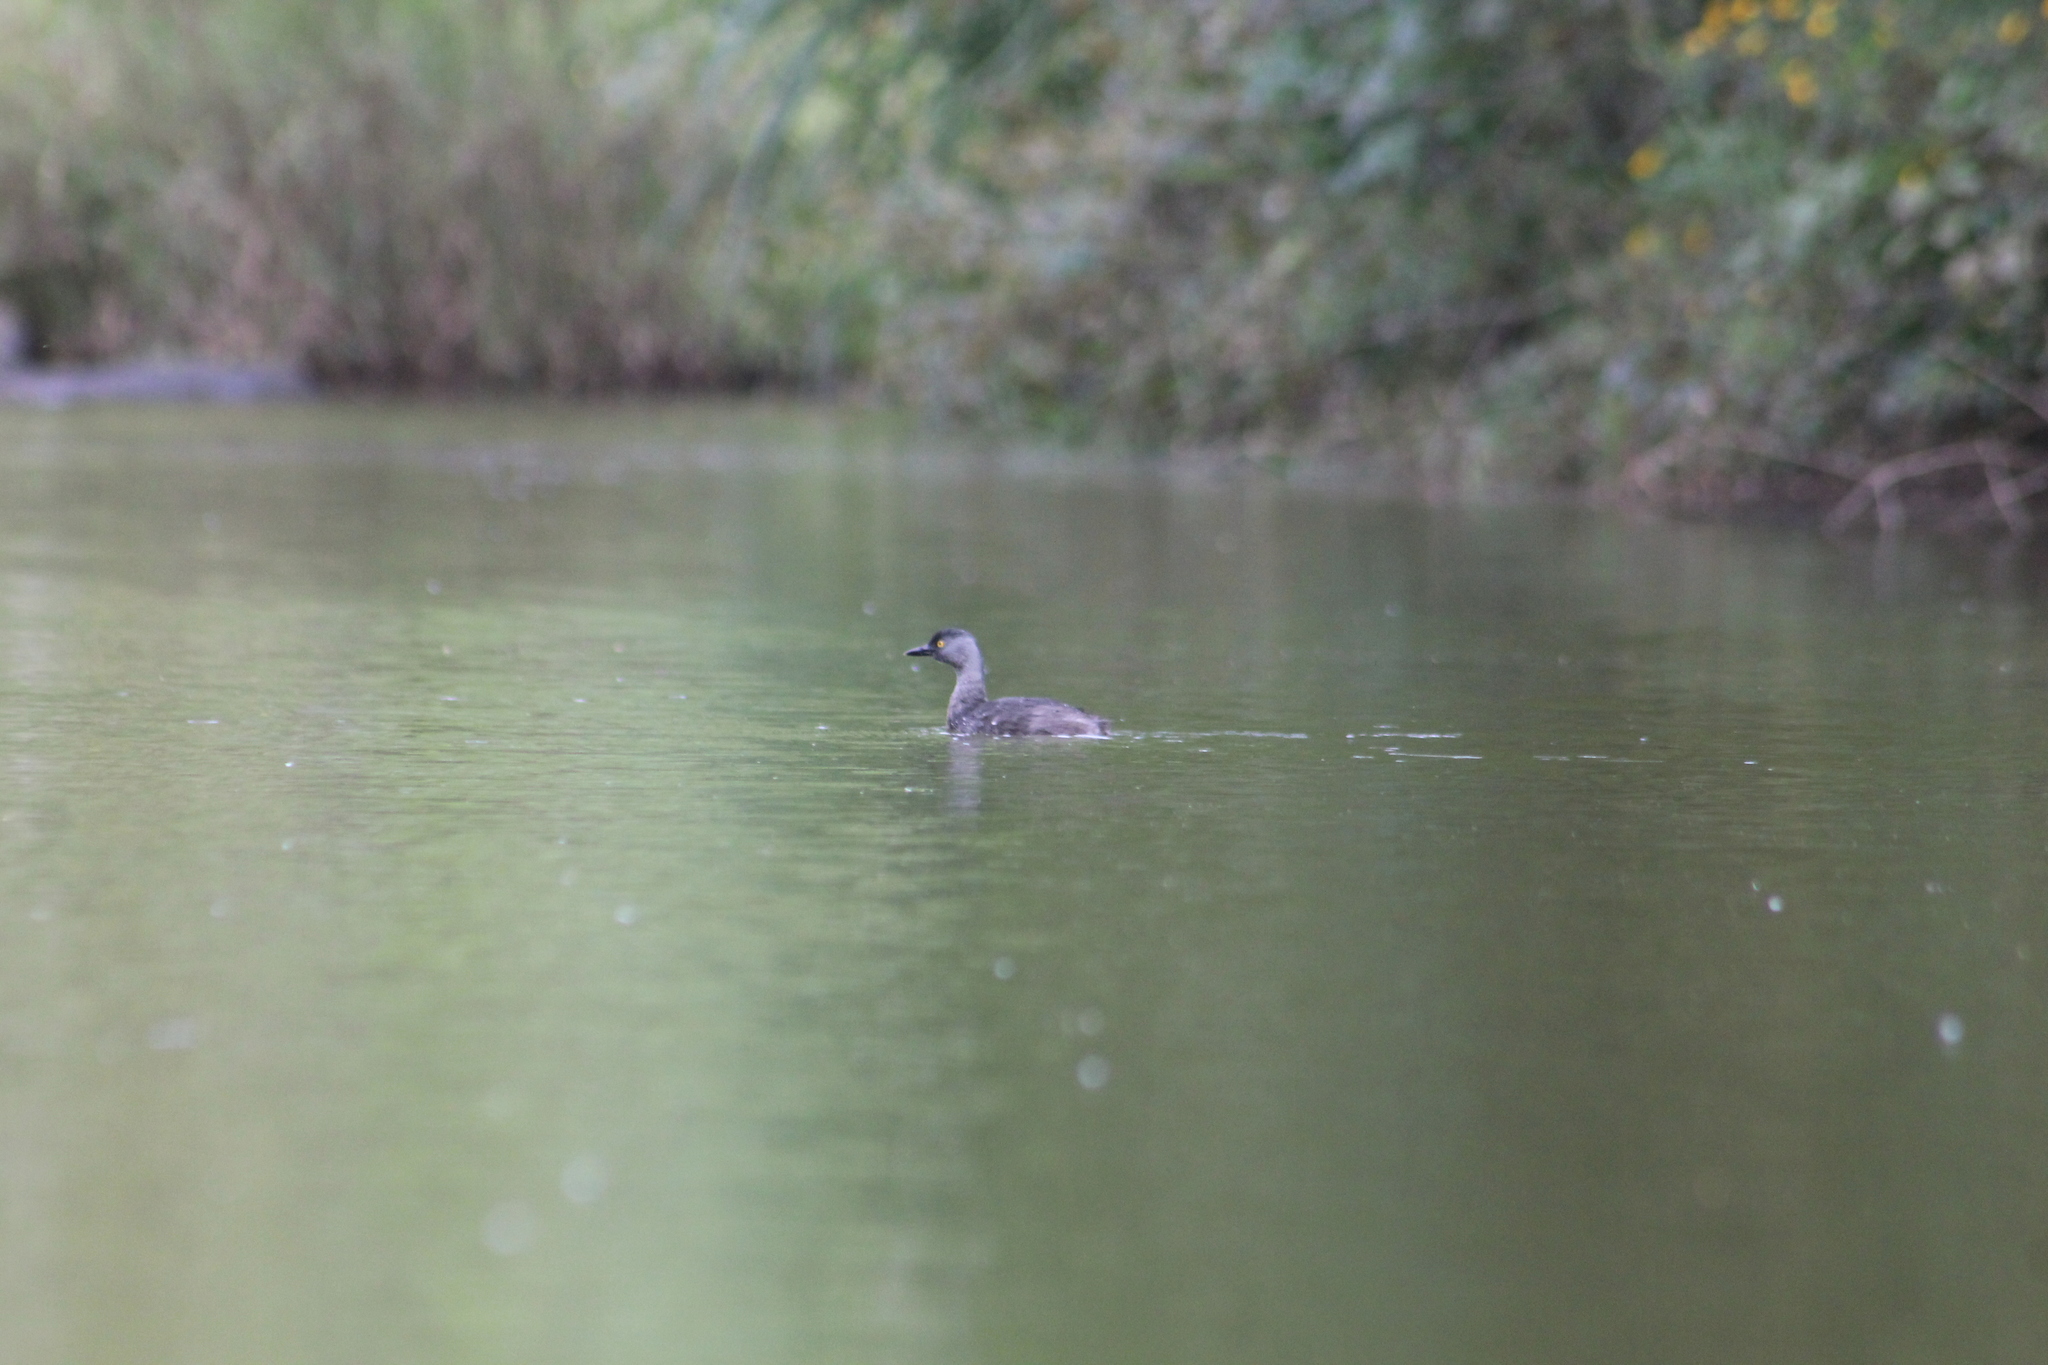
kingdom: Animalia
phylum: Chordata
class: Aves
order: Podicipediformes
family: Podicipedidae
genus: Tachybaptus
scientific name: Tachybaptus dominicus
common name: Least grebe
